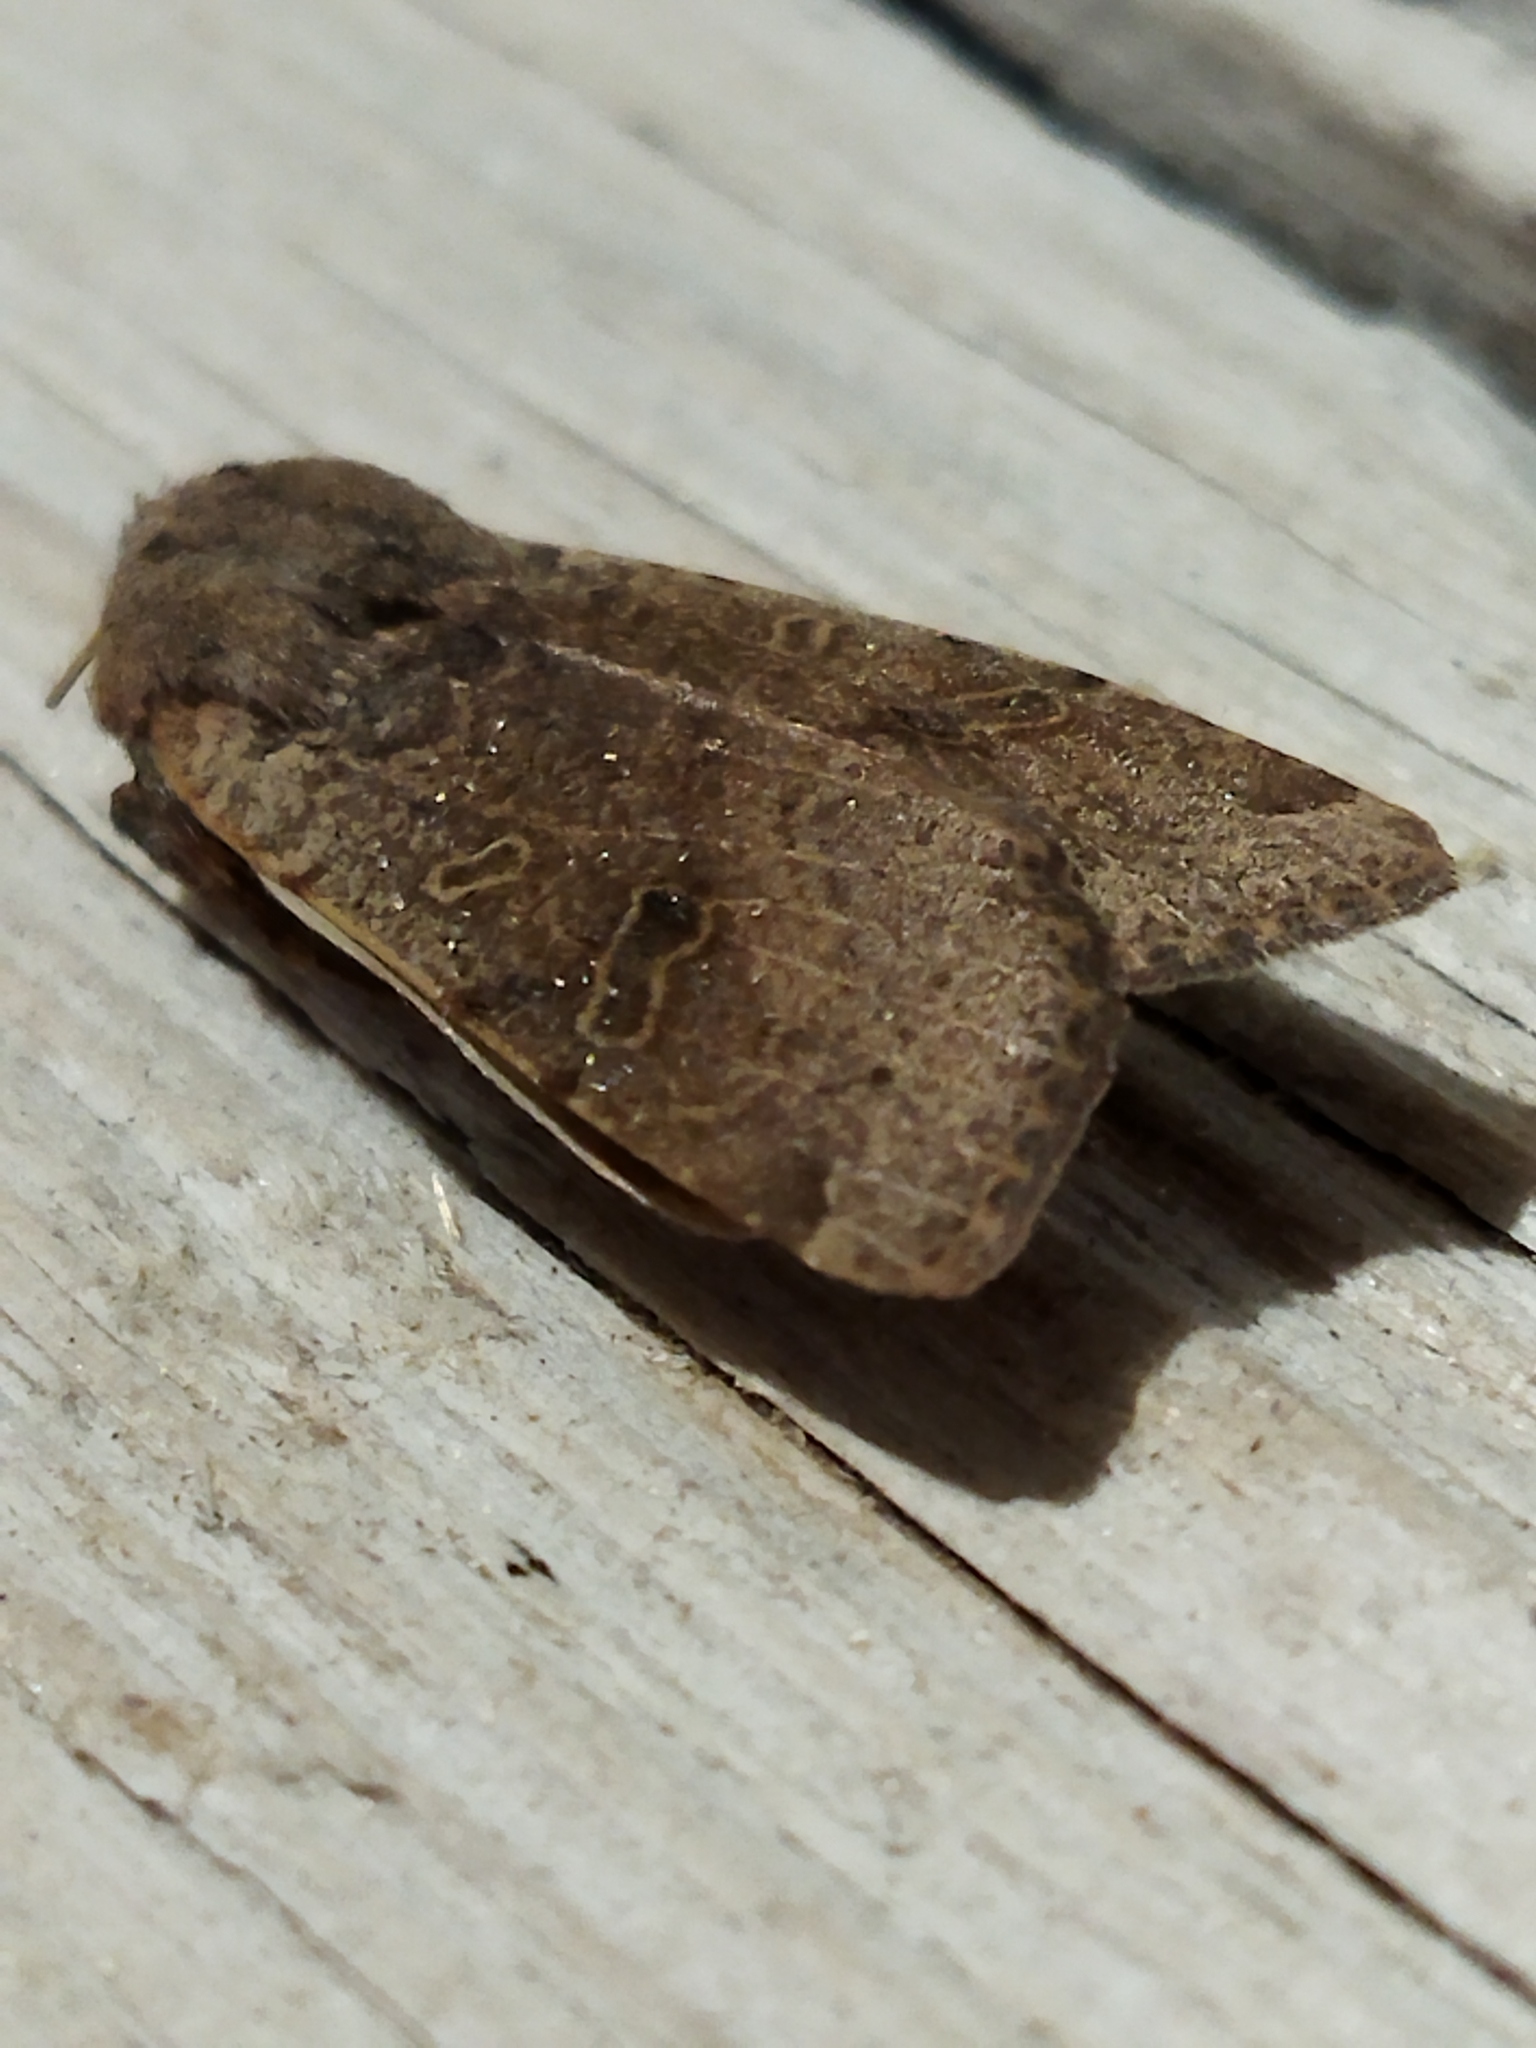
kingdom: Animalia
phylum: Arthropoda
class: Insecta
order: Lepidoptera
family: Noctuidae
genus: Agrochola
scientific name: Agrochola lychnidis
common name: Beaded chestnut
